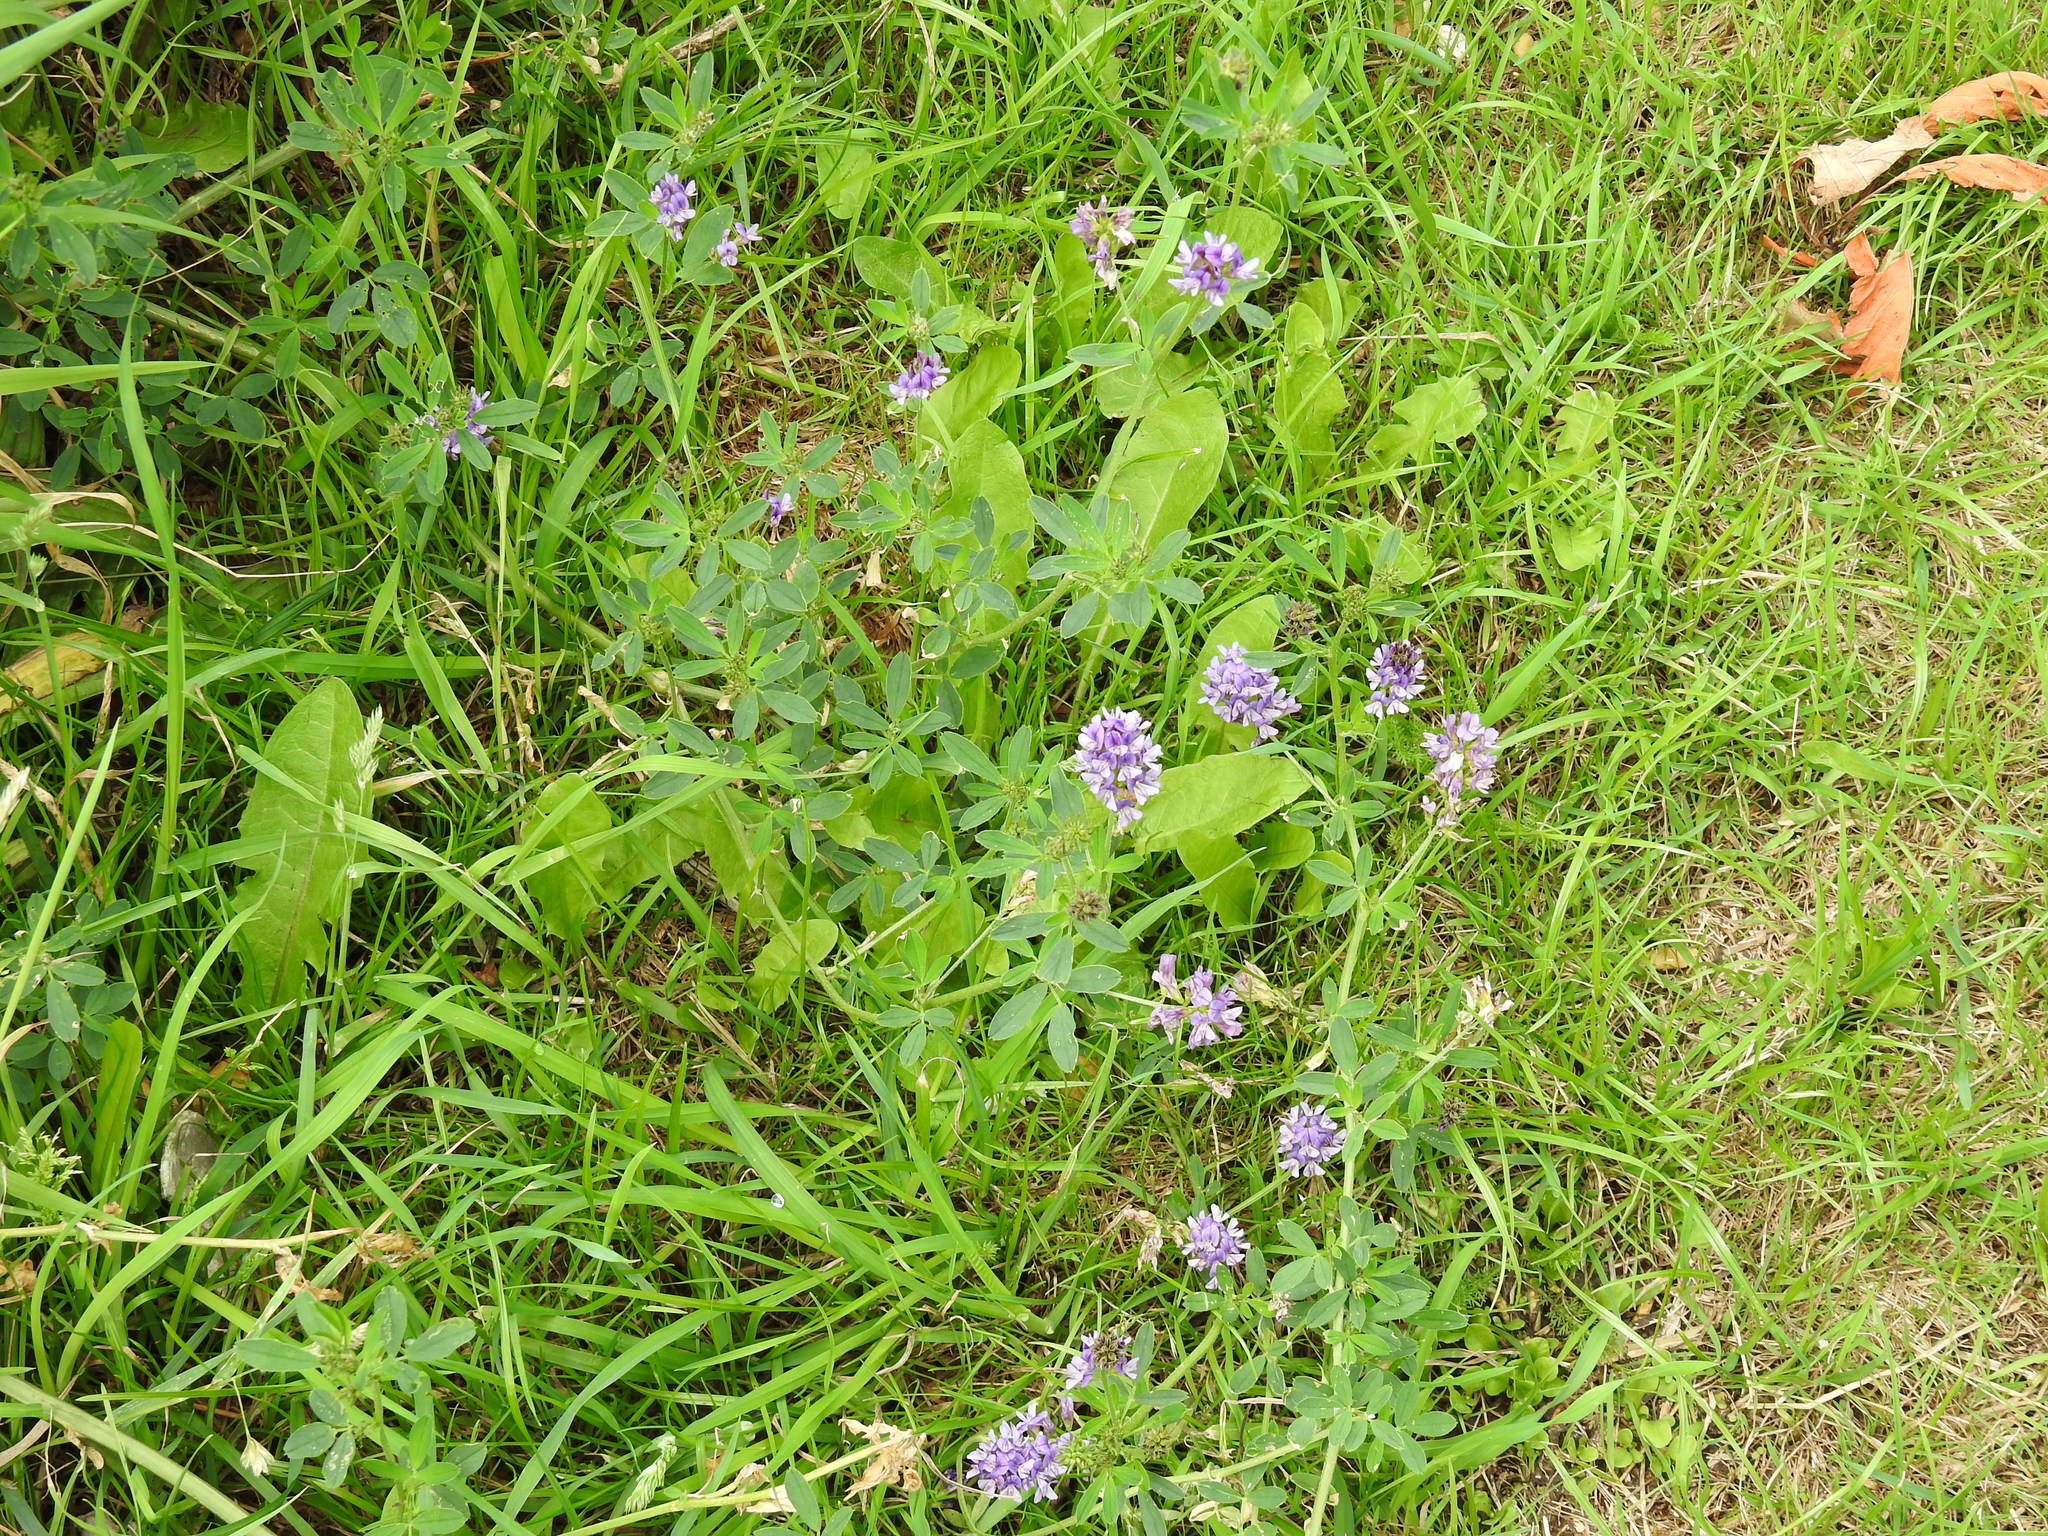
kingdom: Plantae
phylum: Tracheophyta
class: Magnoliopsida
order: Fabales
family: Fabaceae
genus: Medicago
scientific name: Medicago sativa
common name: Alfalfa
